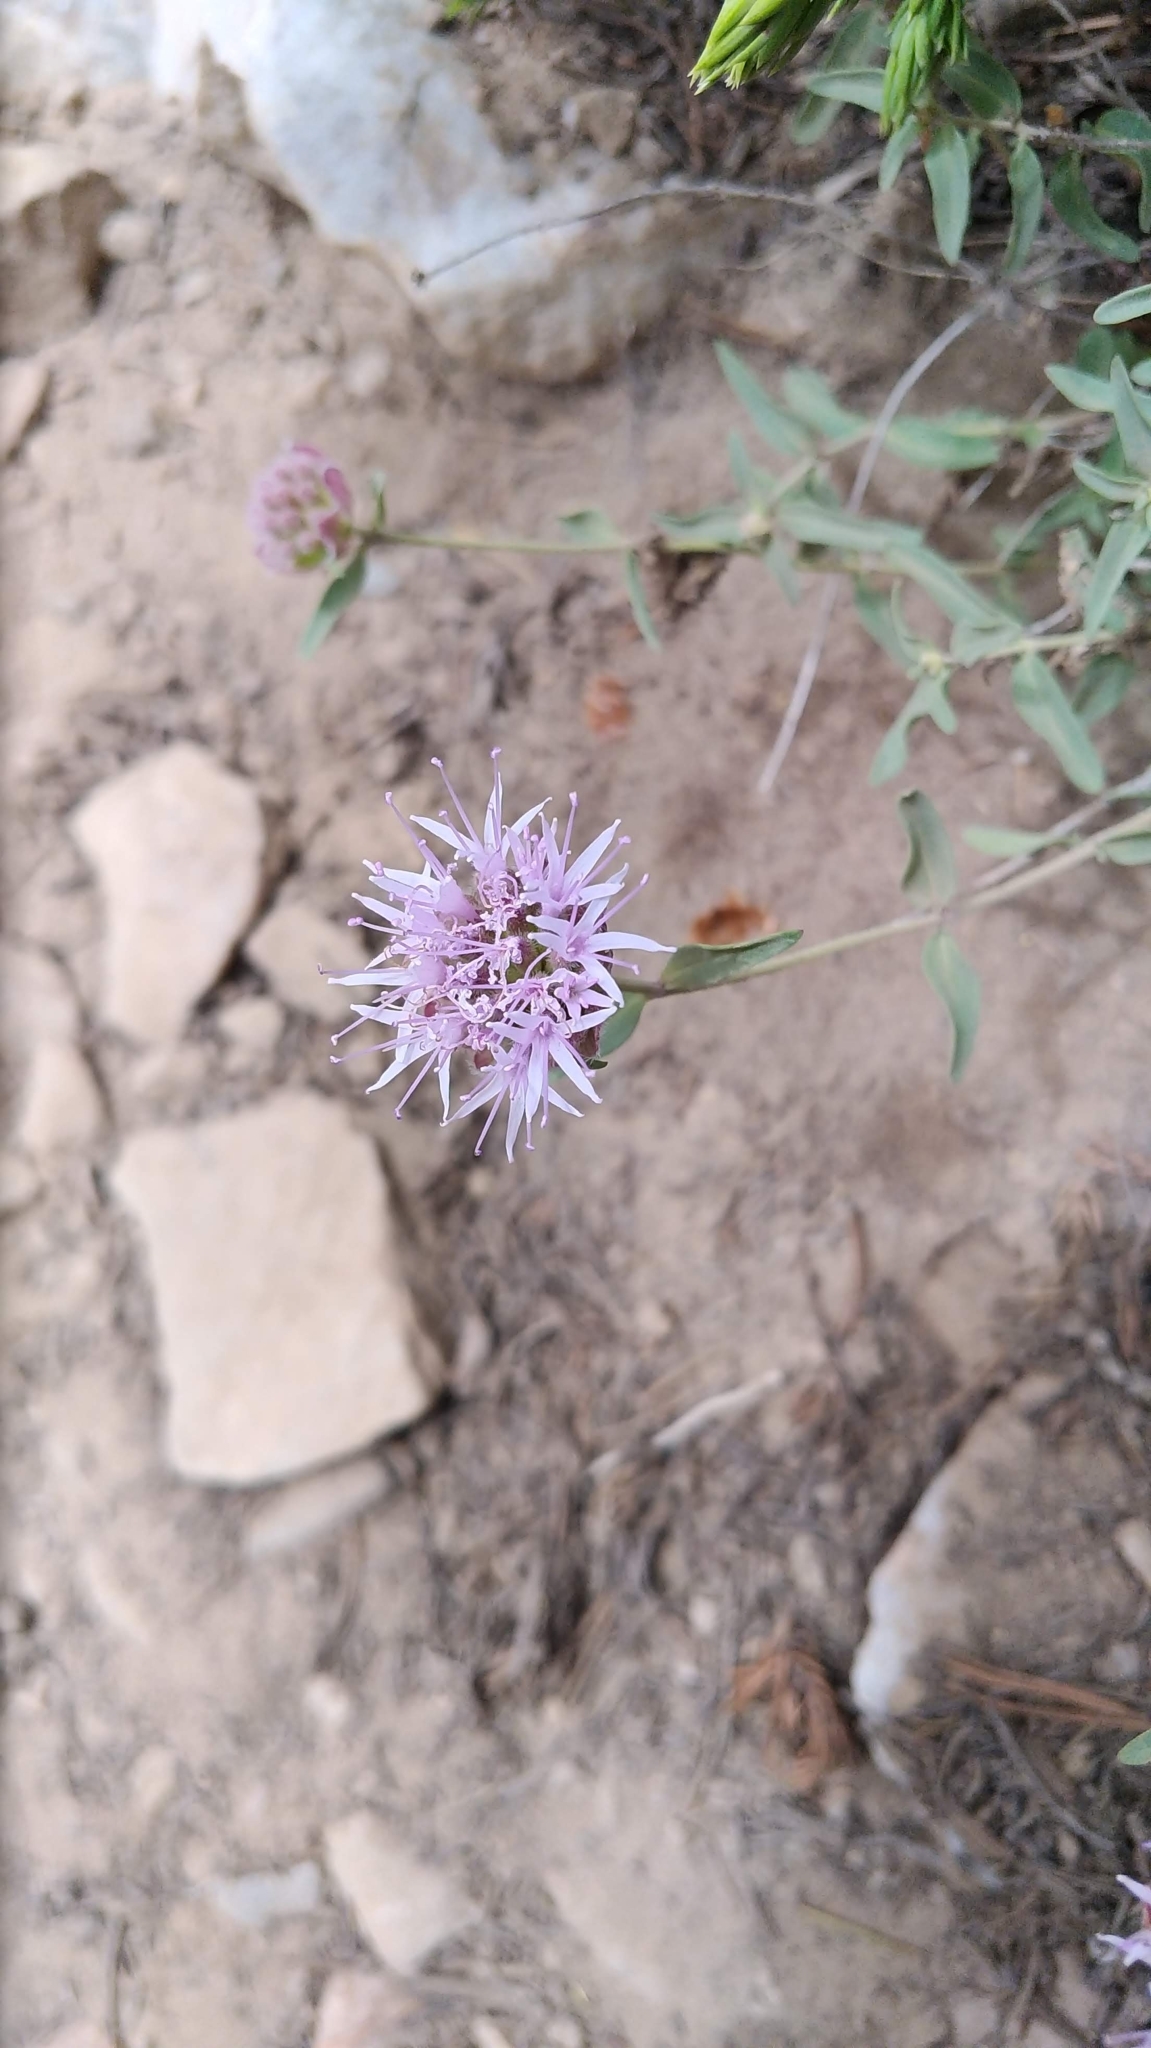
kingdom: Plantae
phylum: Tracheophyta
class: Magnoliopsida
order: Lamiales
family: Lamiaceae
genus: Monardella
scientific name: Monardella odoratissima
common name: Pacific monardella
